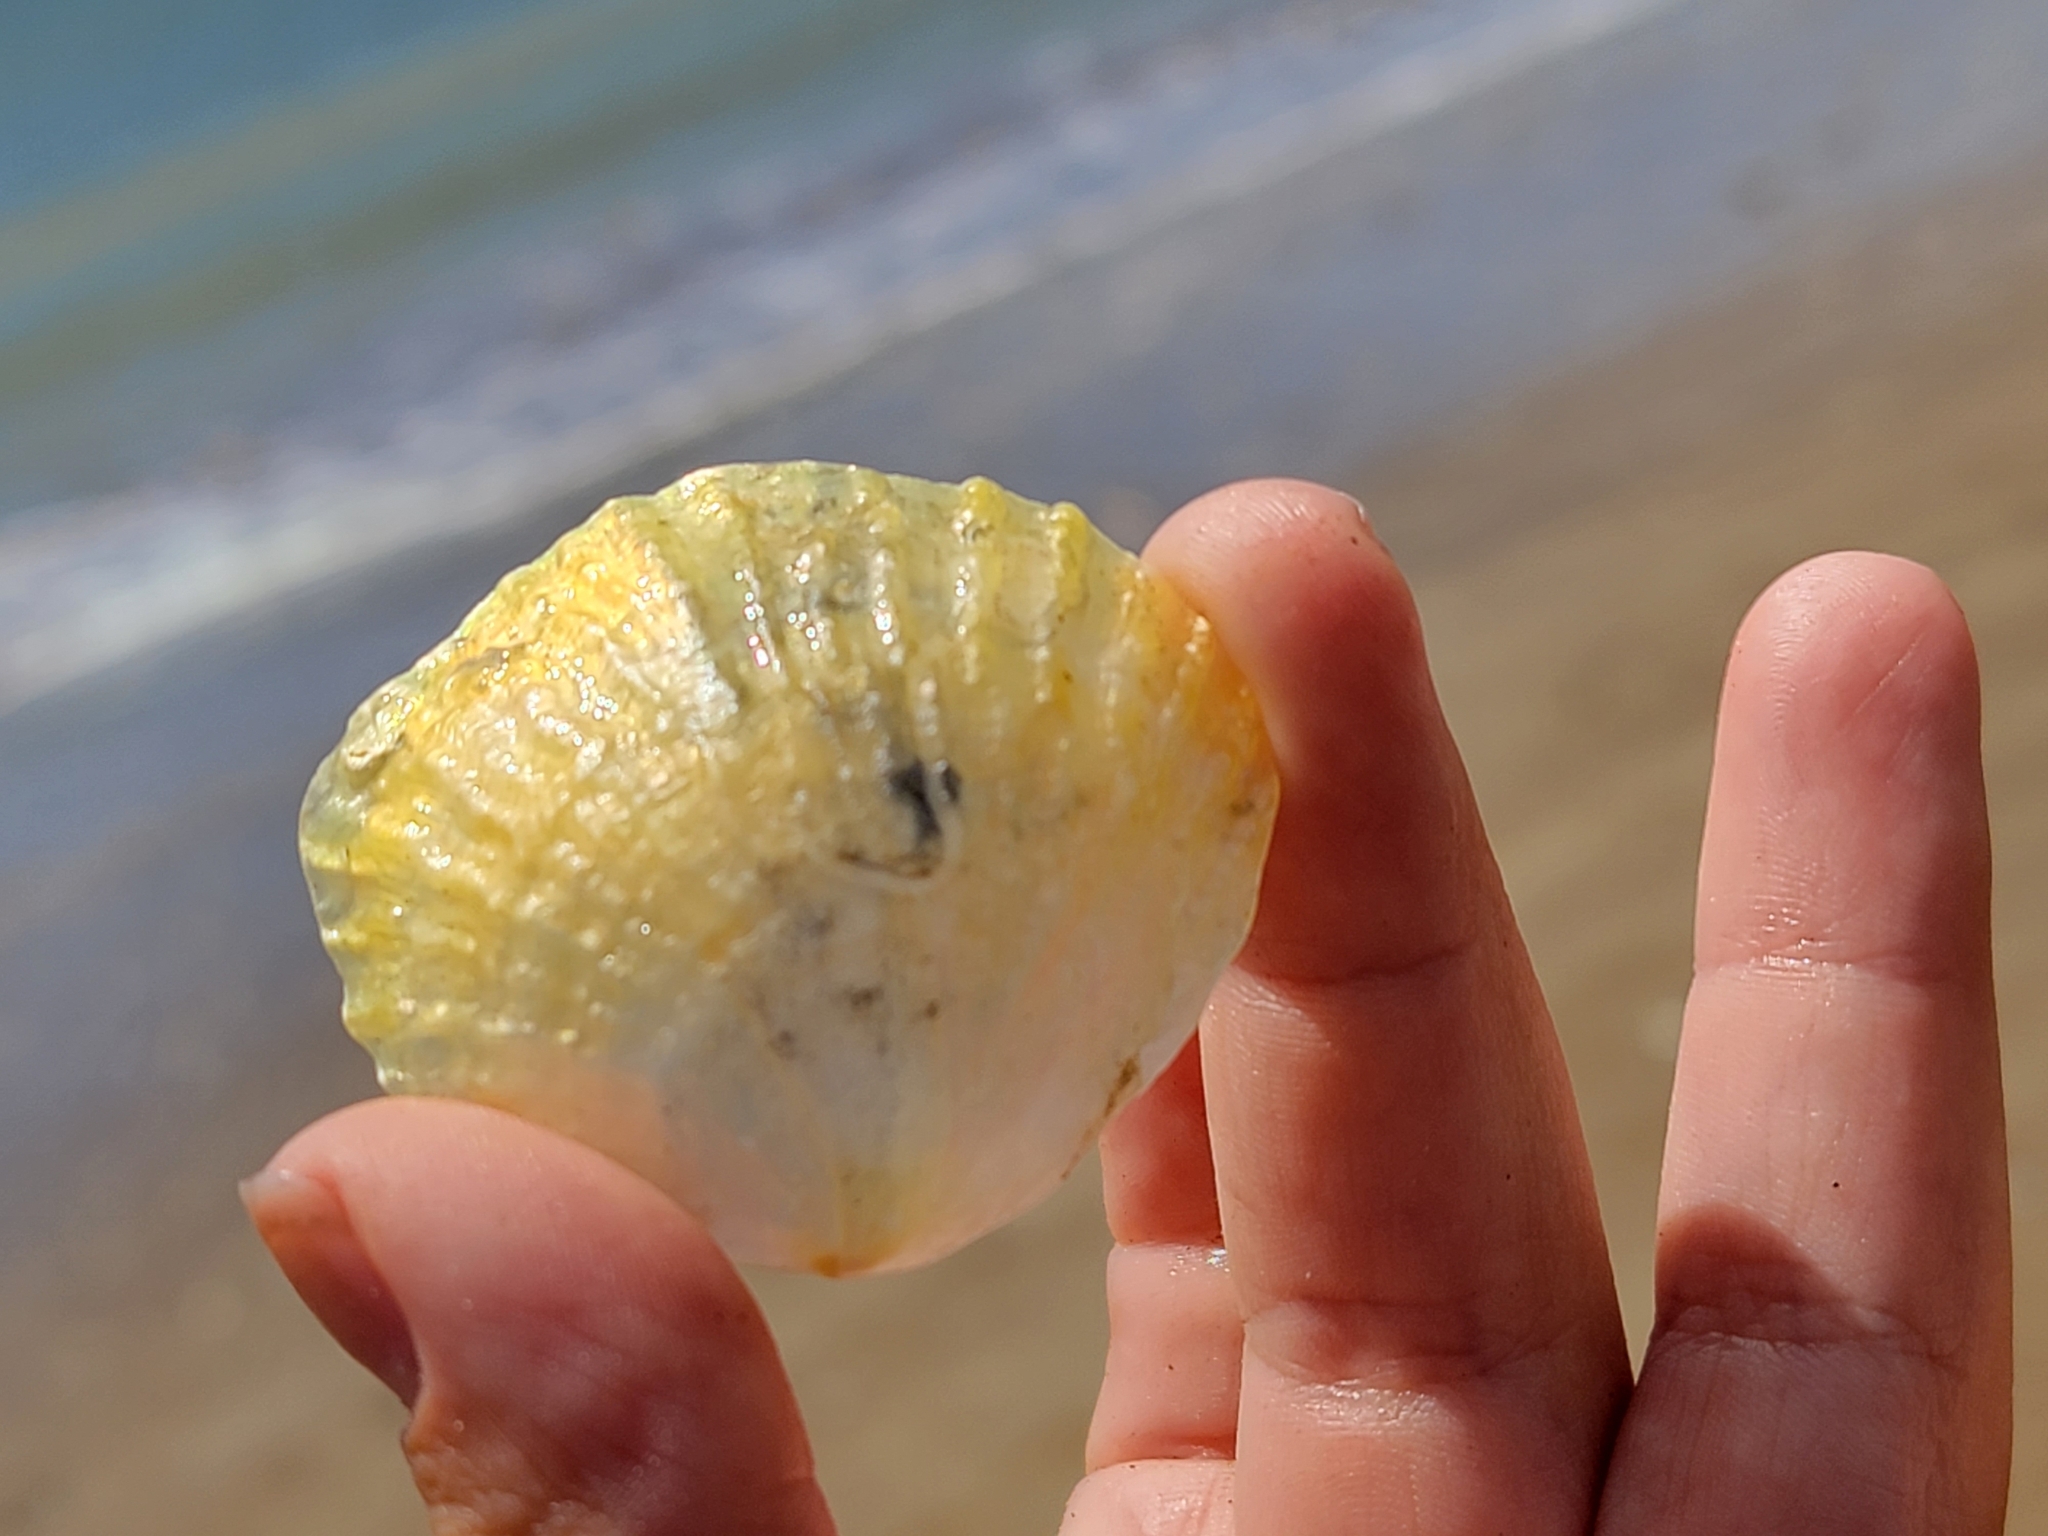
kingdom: Animalia
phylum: Mollusca
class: Bivalvia
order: Pectinida
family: Anomiidae
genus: Anomia
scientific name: Anomia trigonopsis
